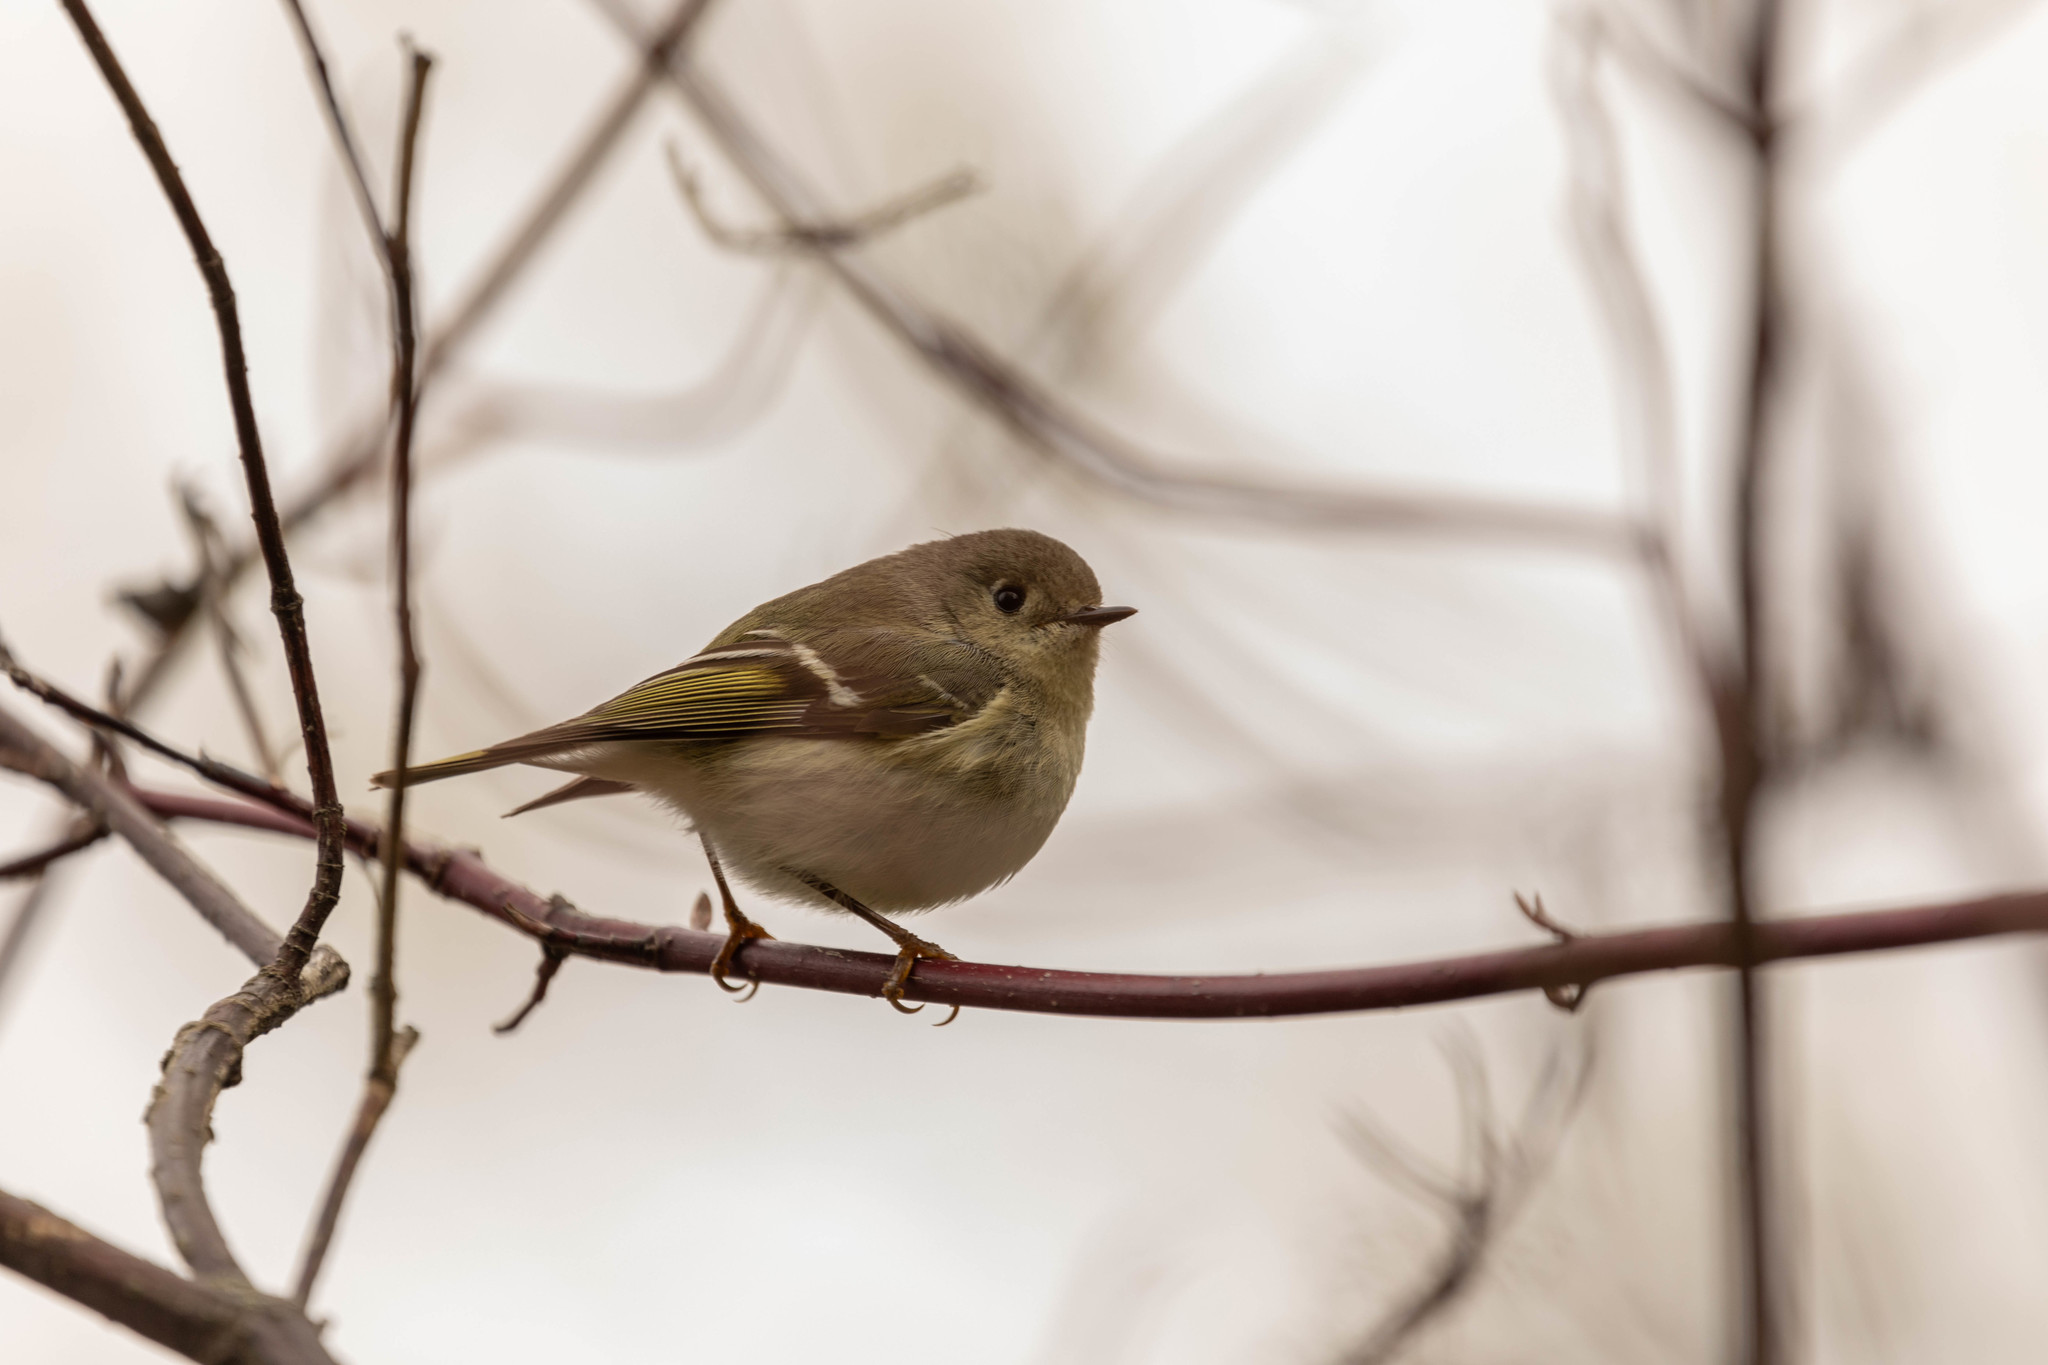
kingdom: Animalia
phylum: Chordata
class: Aves
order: Passeriformes
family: Regulidae
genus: Regulus
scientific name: Regulus calendula
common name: Ruby-crowned kinglet
